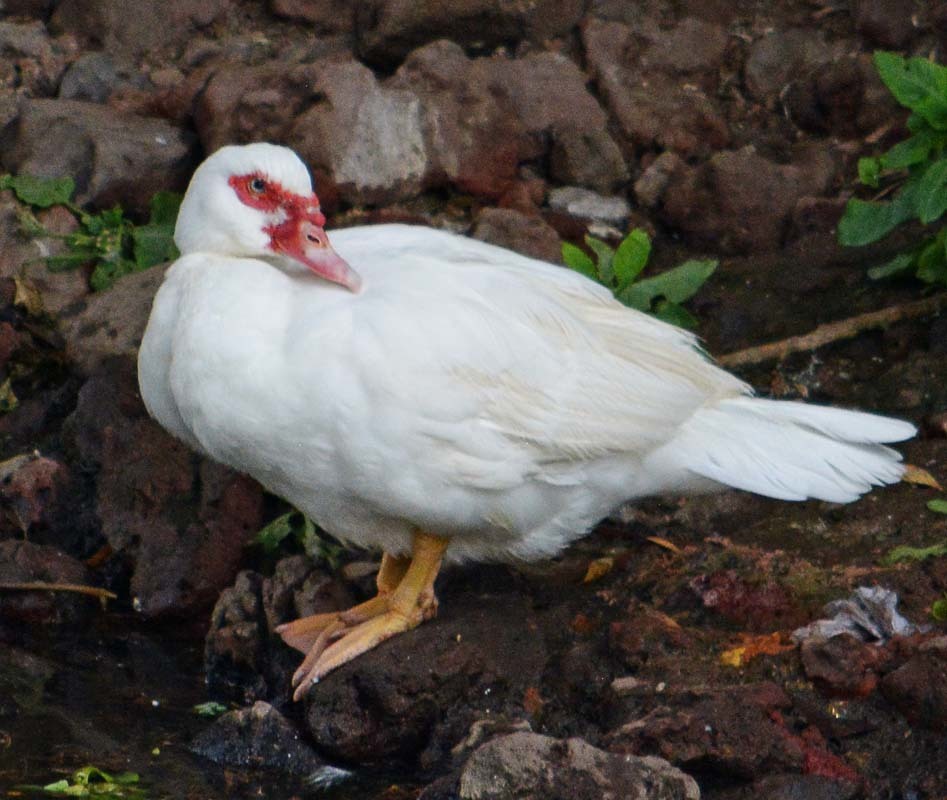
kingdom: Animalia
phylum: Chordata
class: Aves
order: Anseriformes
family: Anatidae
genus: Cairina
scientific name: Cairina moschata
